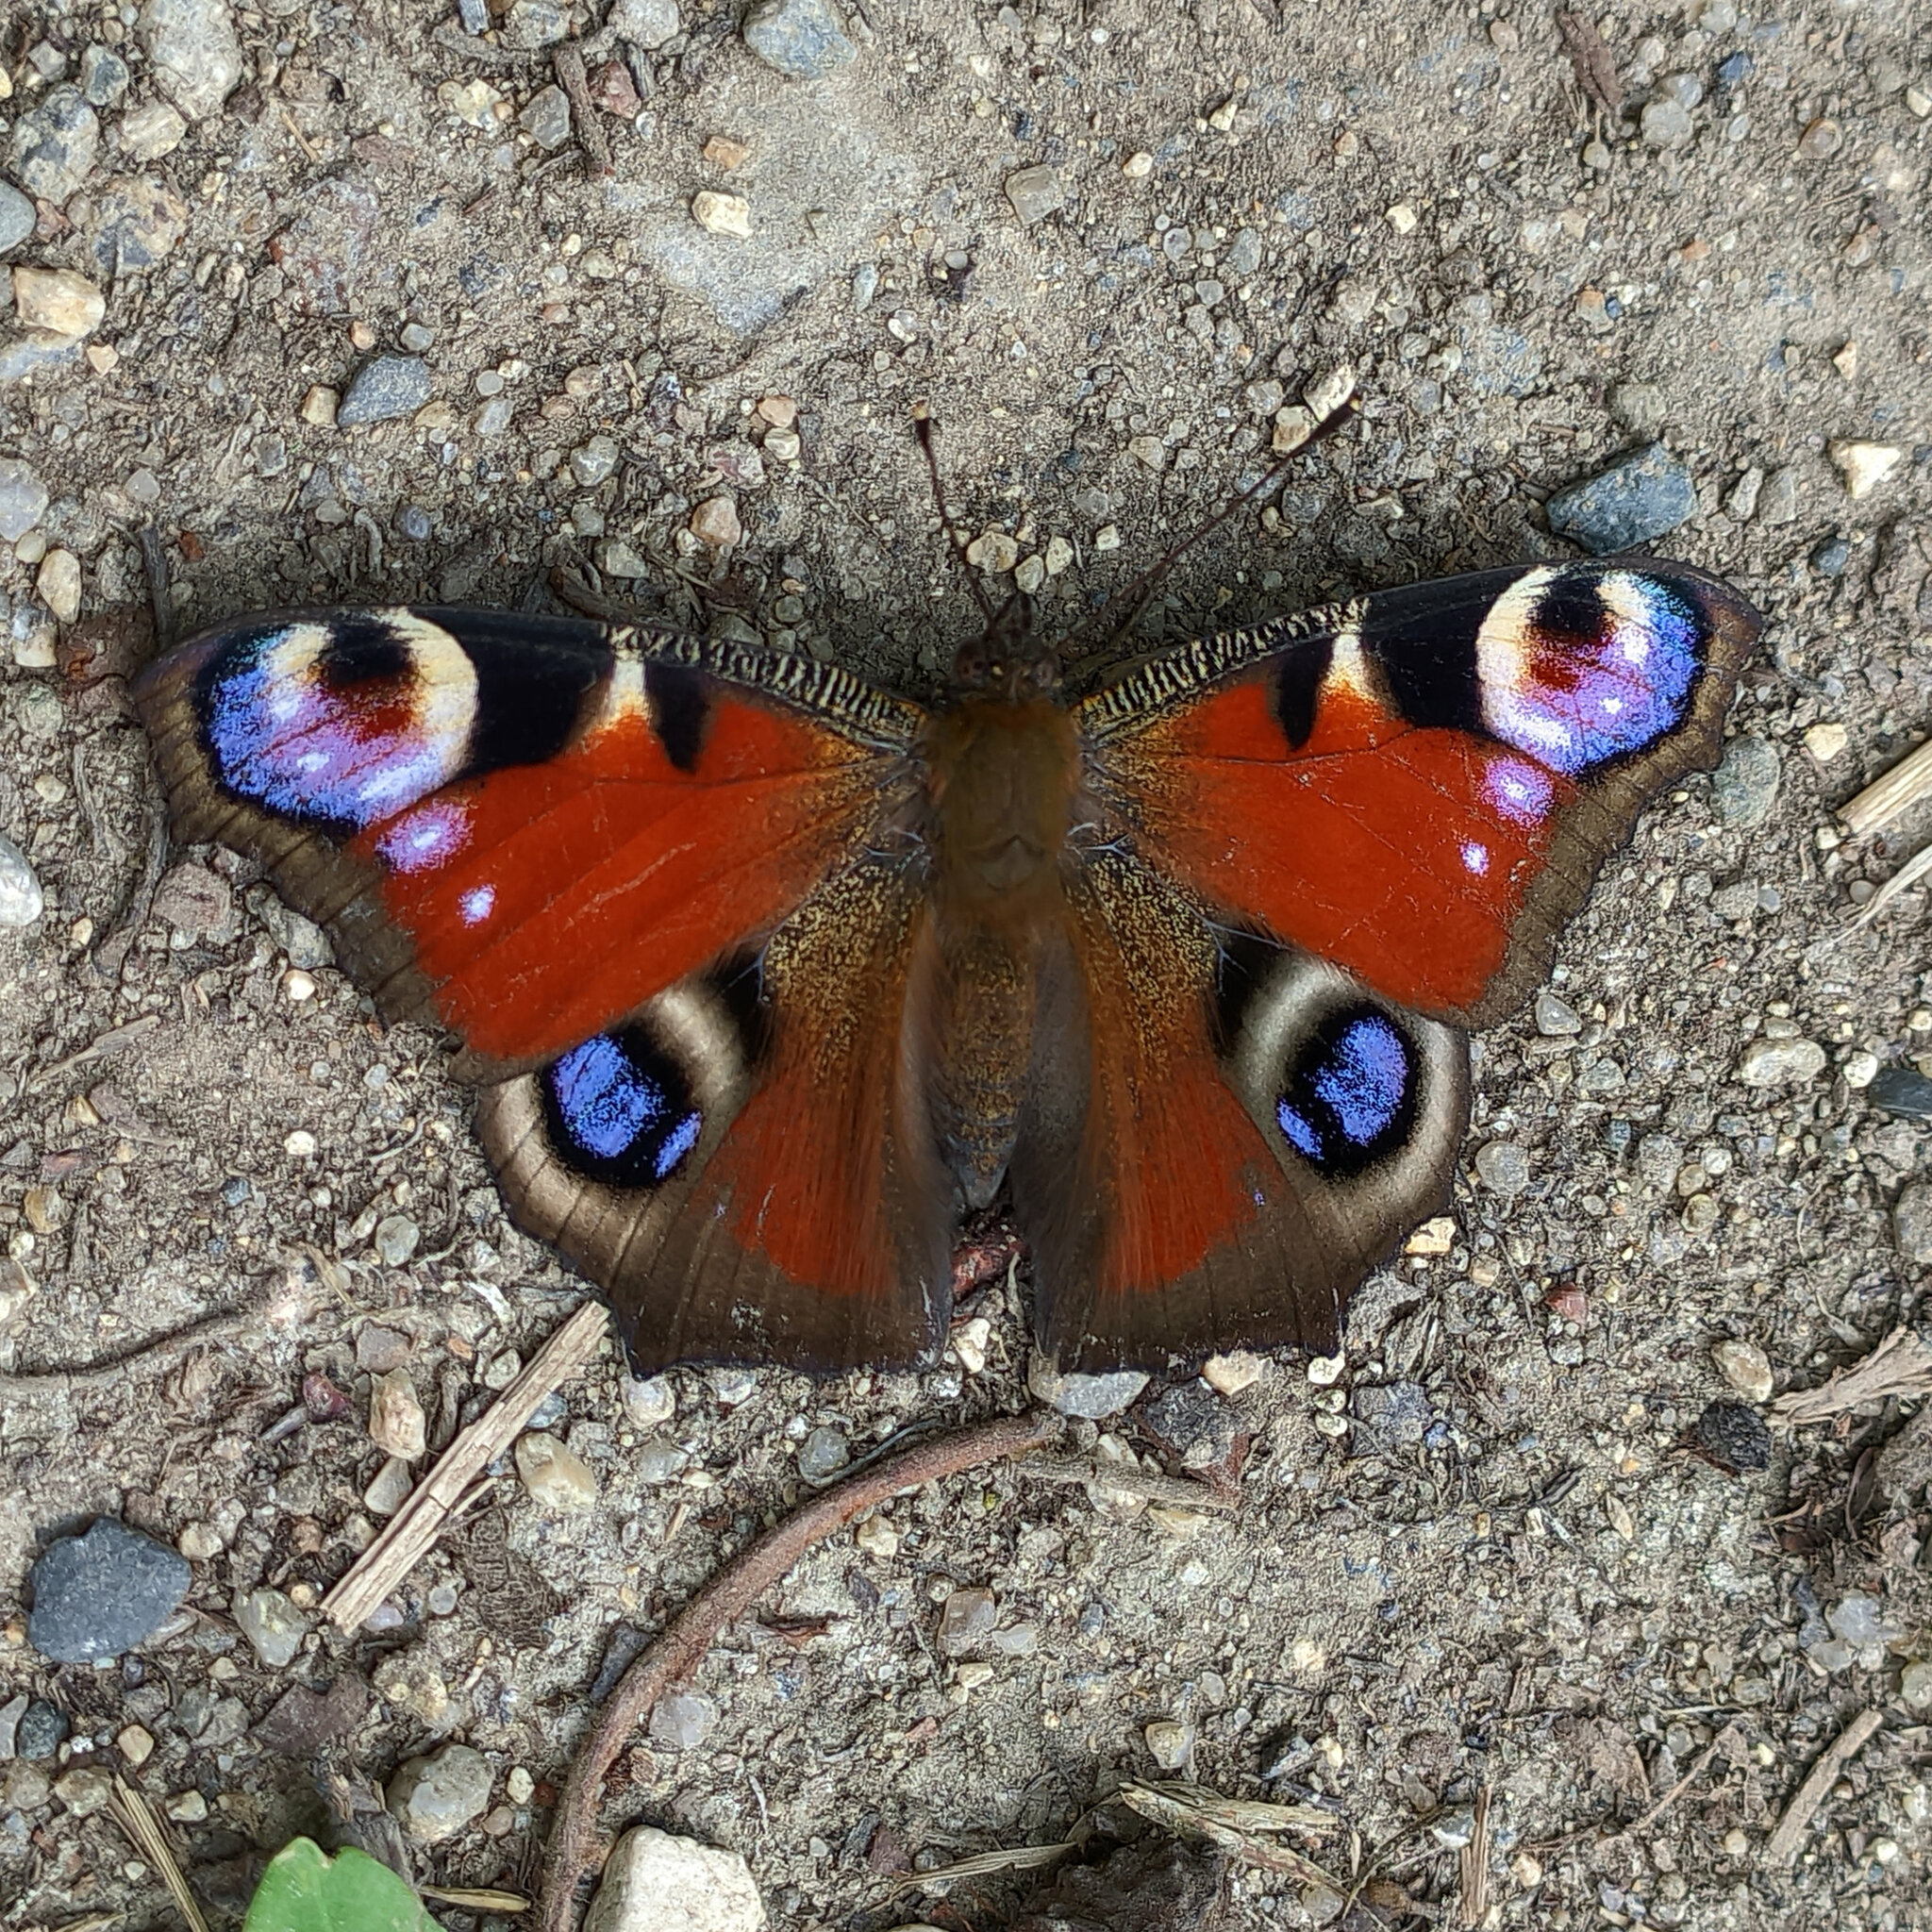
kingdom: Animalia
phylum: Arthropoda
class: Insecta
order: Lepidoptera
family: Nymphalidae
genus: Aglais
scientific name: Aglais io
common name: Peacock
